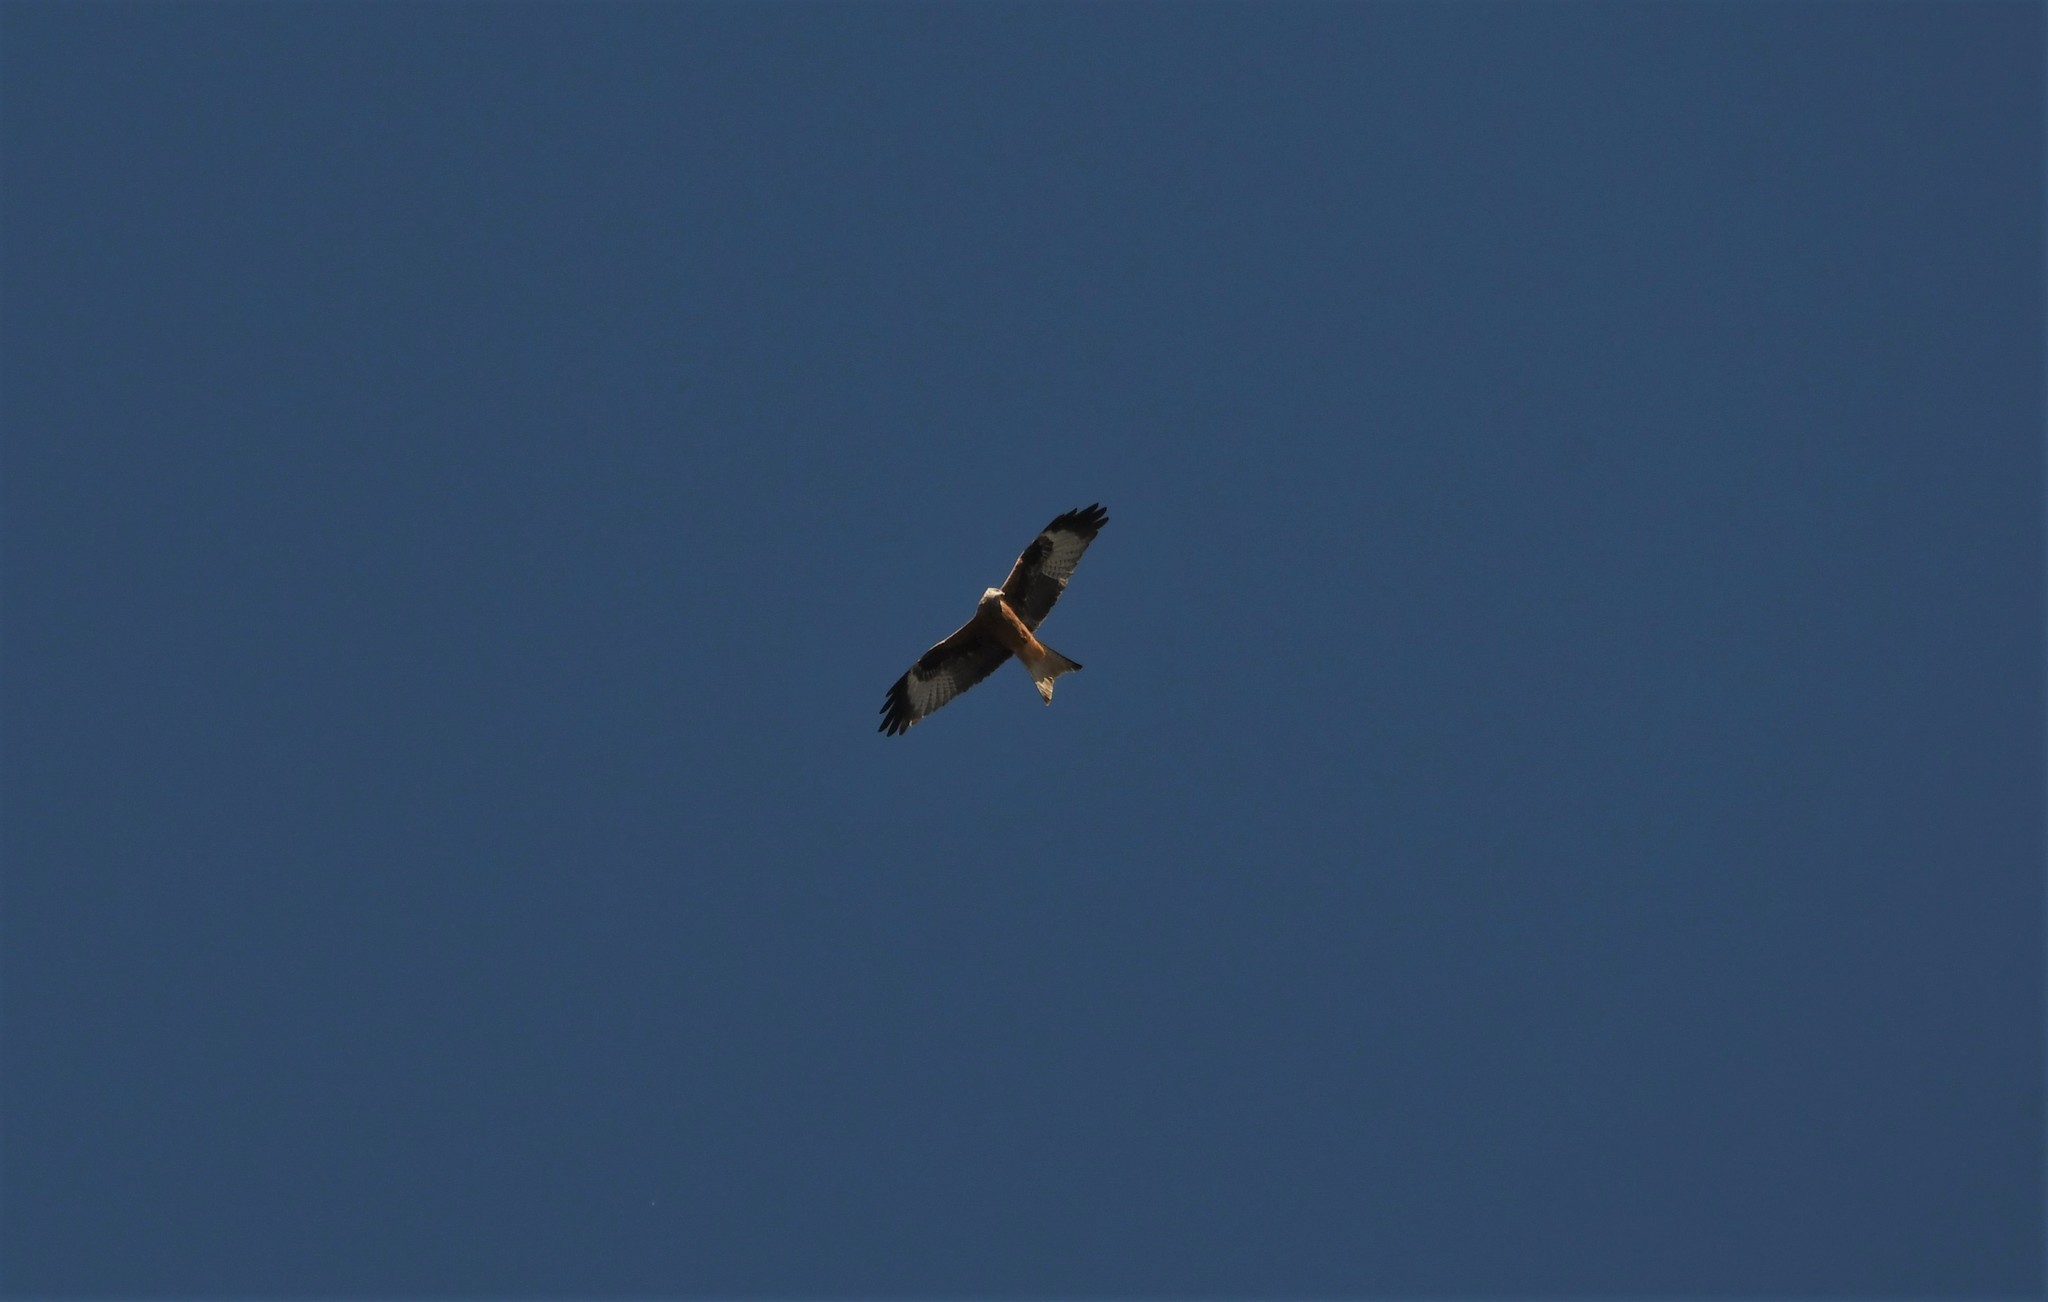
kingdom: Animalia
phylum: Chordata
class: Aves
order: Accipitriformes
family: Accipitridae
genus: Milvus
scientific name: Milvus milvus
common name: Red kite
